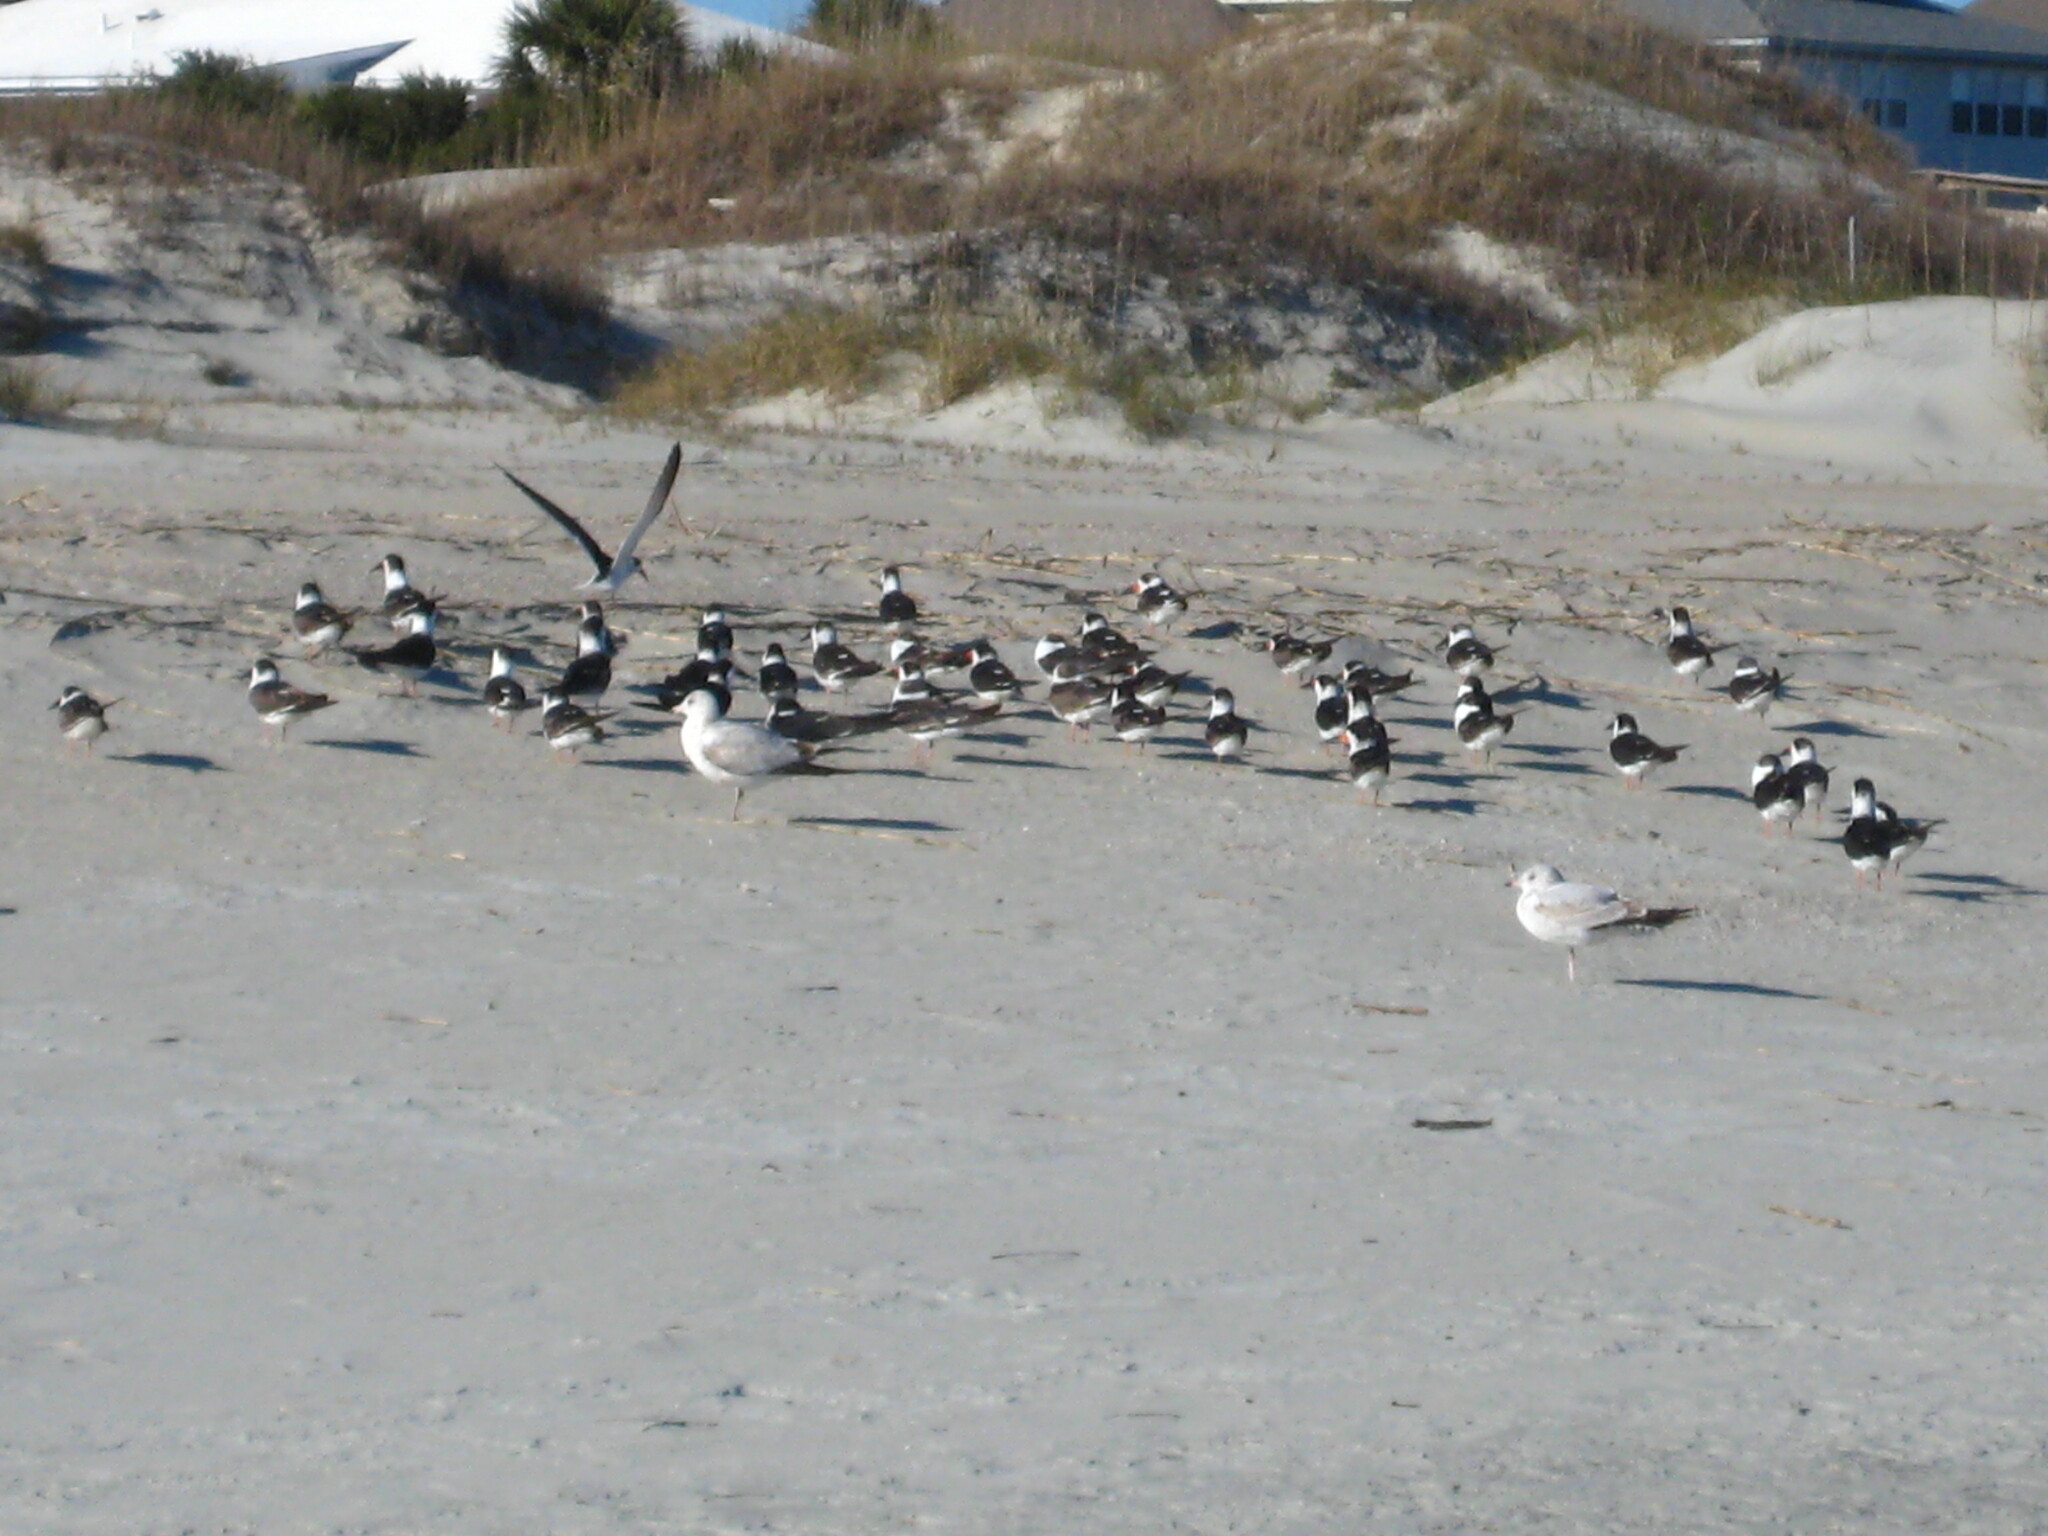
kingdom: Animalia
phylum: Chordata
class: Aves
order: Charadriiformes
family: Laridae
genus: Larus
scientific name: Larus delawarensis
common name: Ring-billed gull
